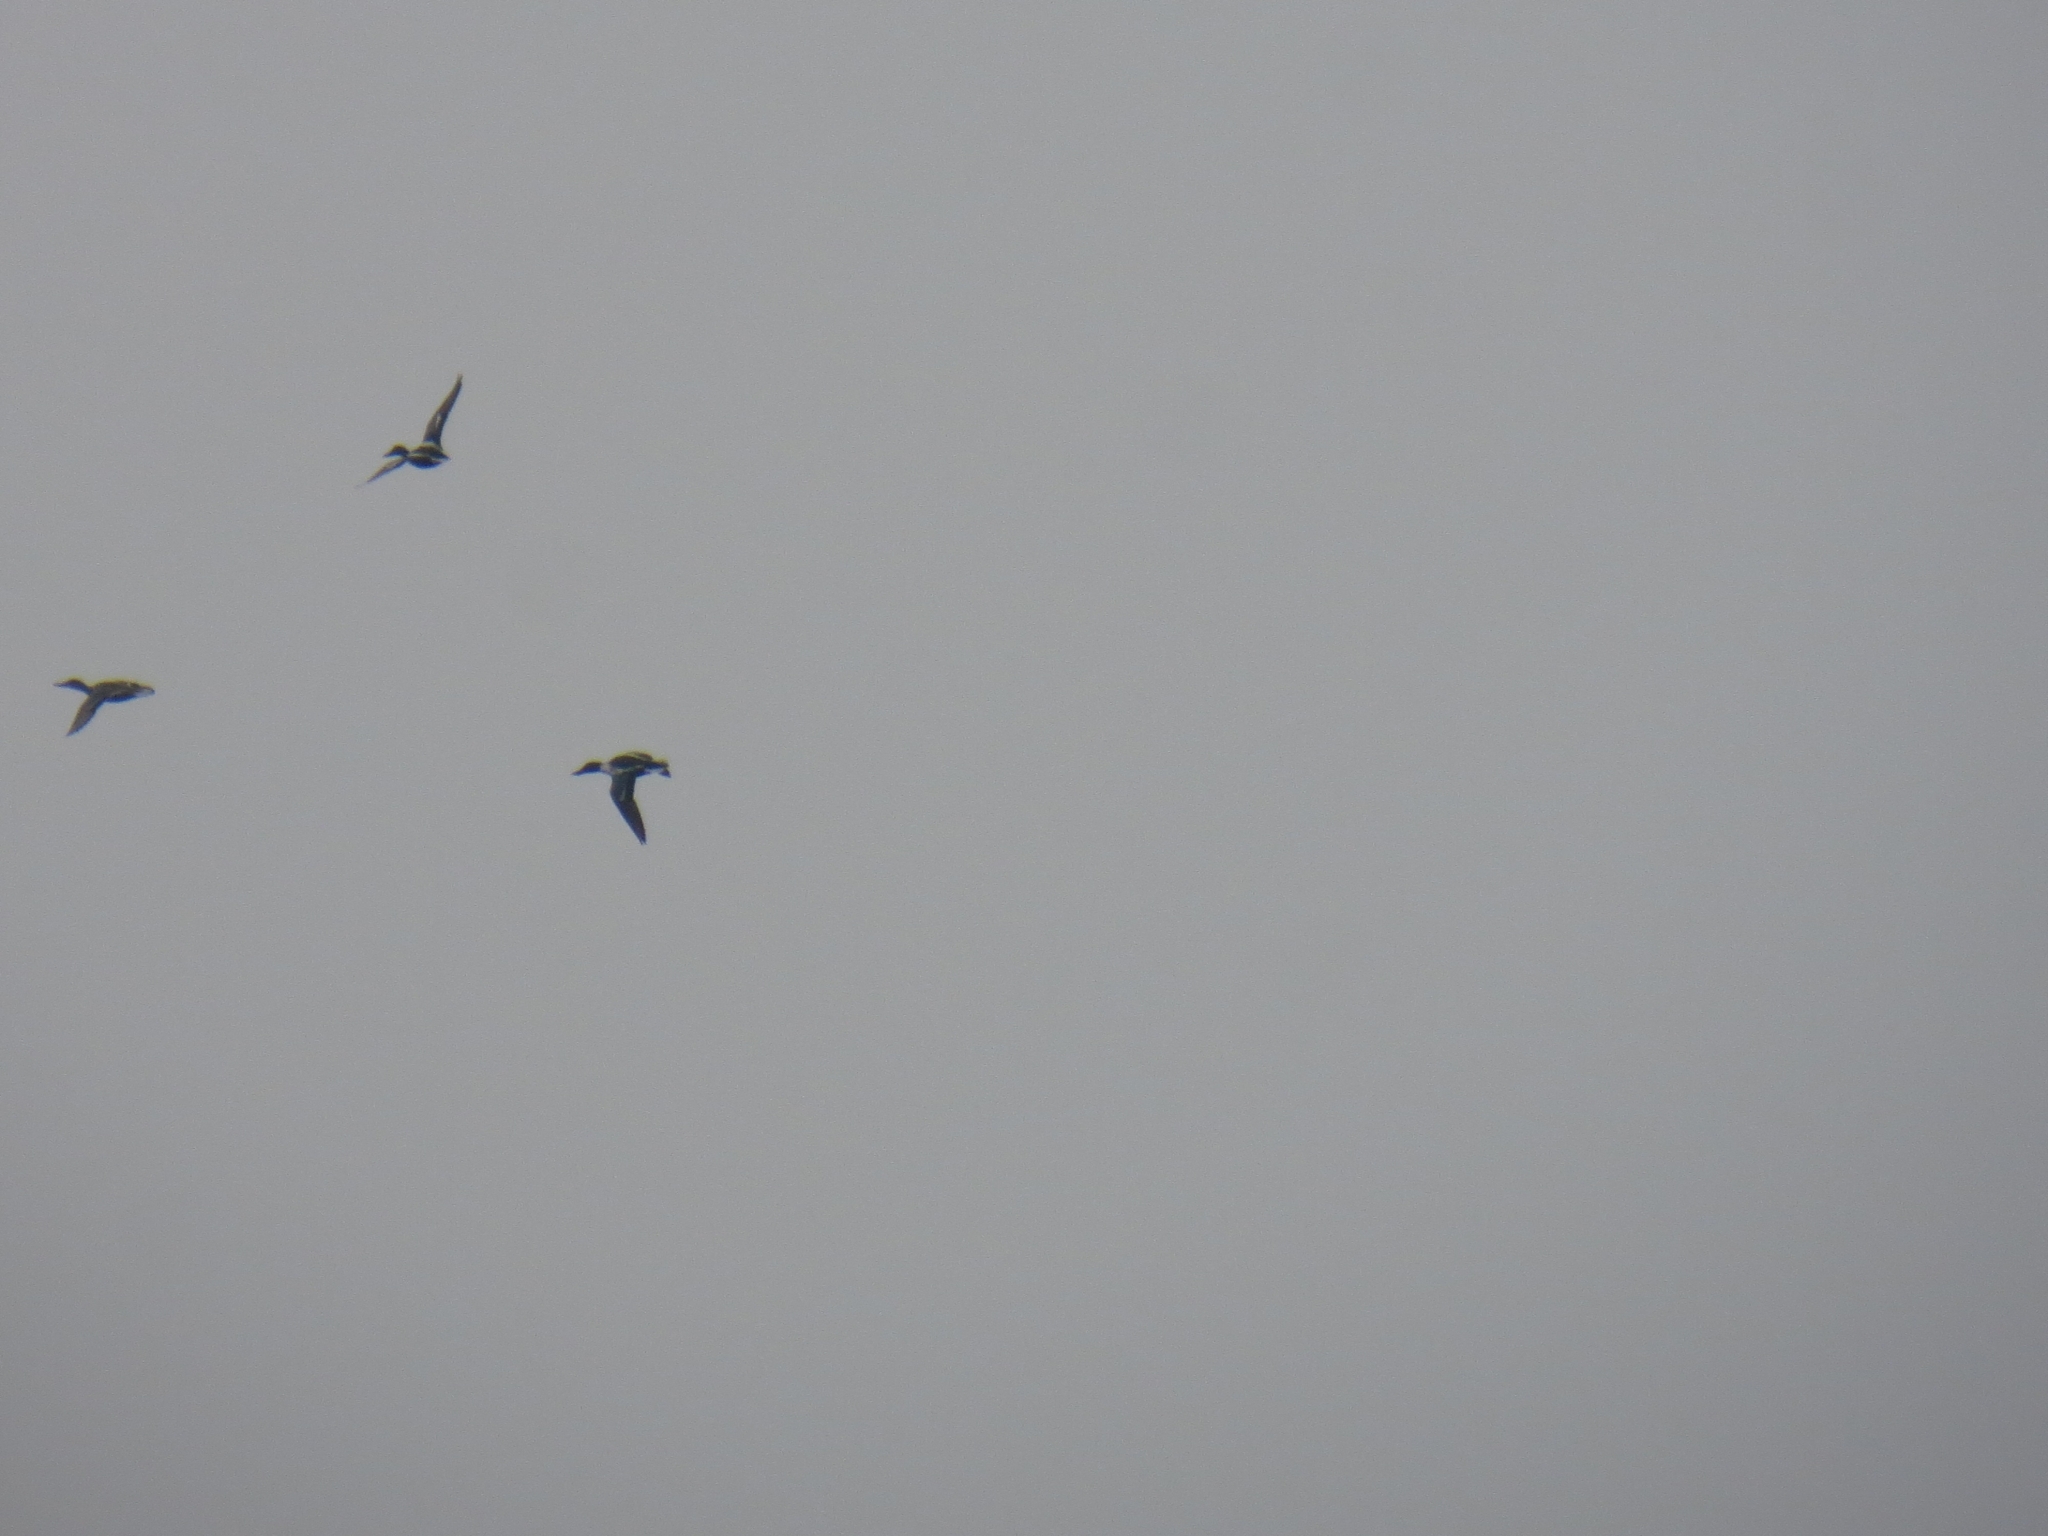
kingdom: Animalia
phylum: Chordata
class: Aves
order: Anseriformes
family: Anatidae
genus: Spatula
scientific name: Spatula clypeata
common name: Northern shoveler
